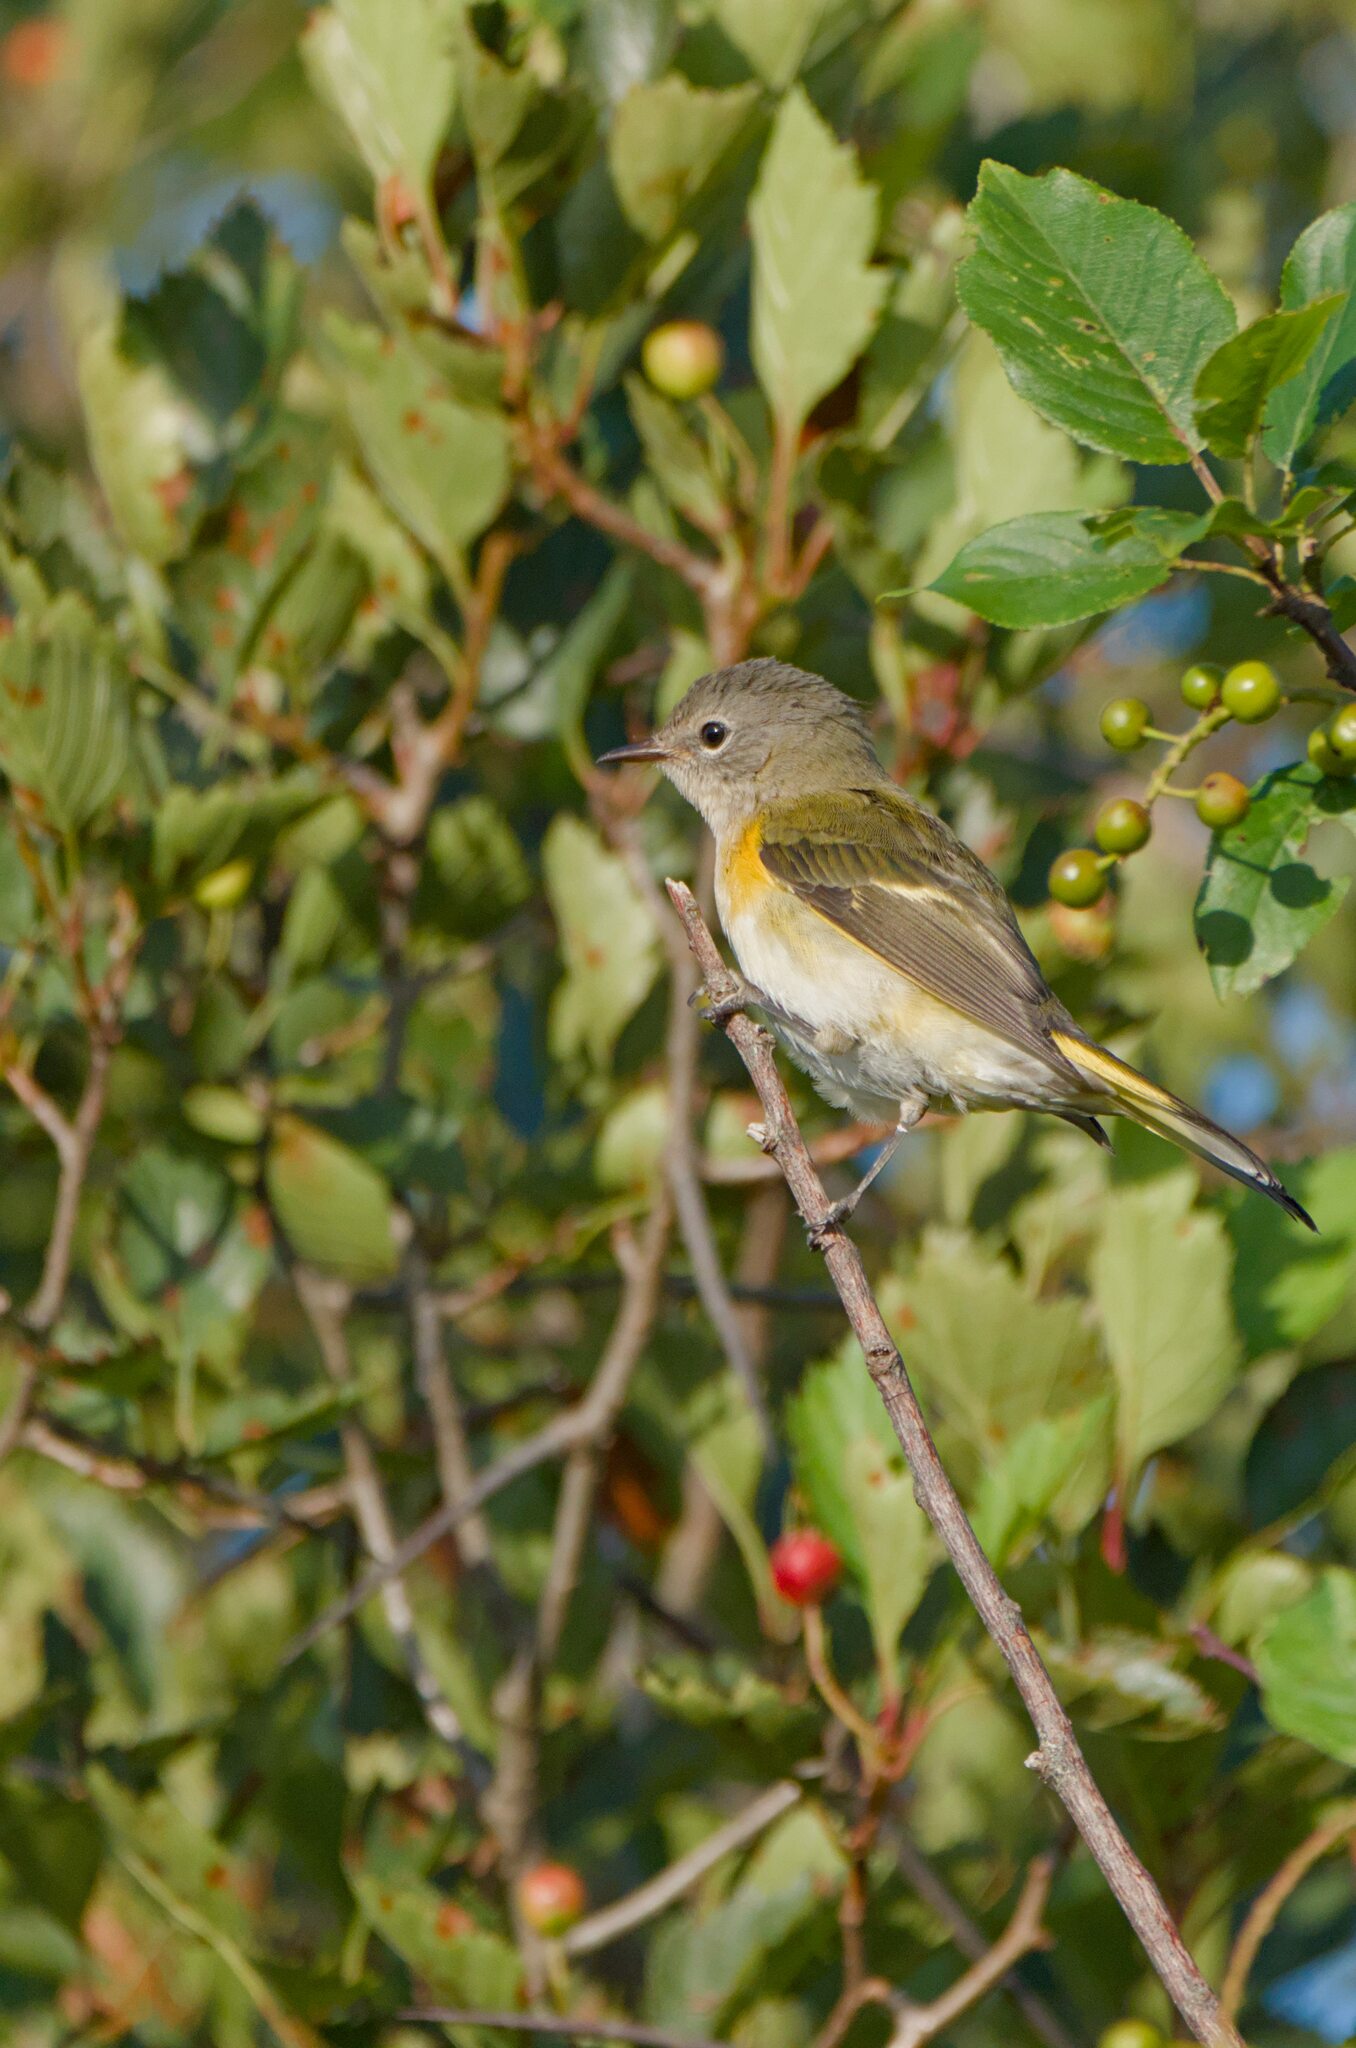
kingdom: Animalia
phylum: Chordata
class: Aves
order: Passeriformes
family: Parulidae
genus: Setophaga
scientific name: Setophaga ruticilla
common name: American redstart
